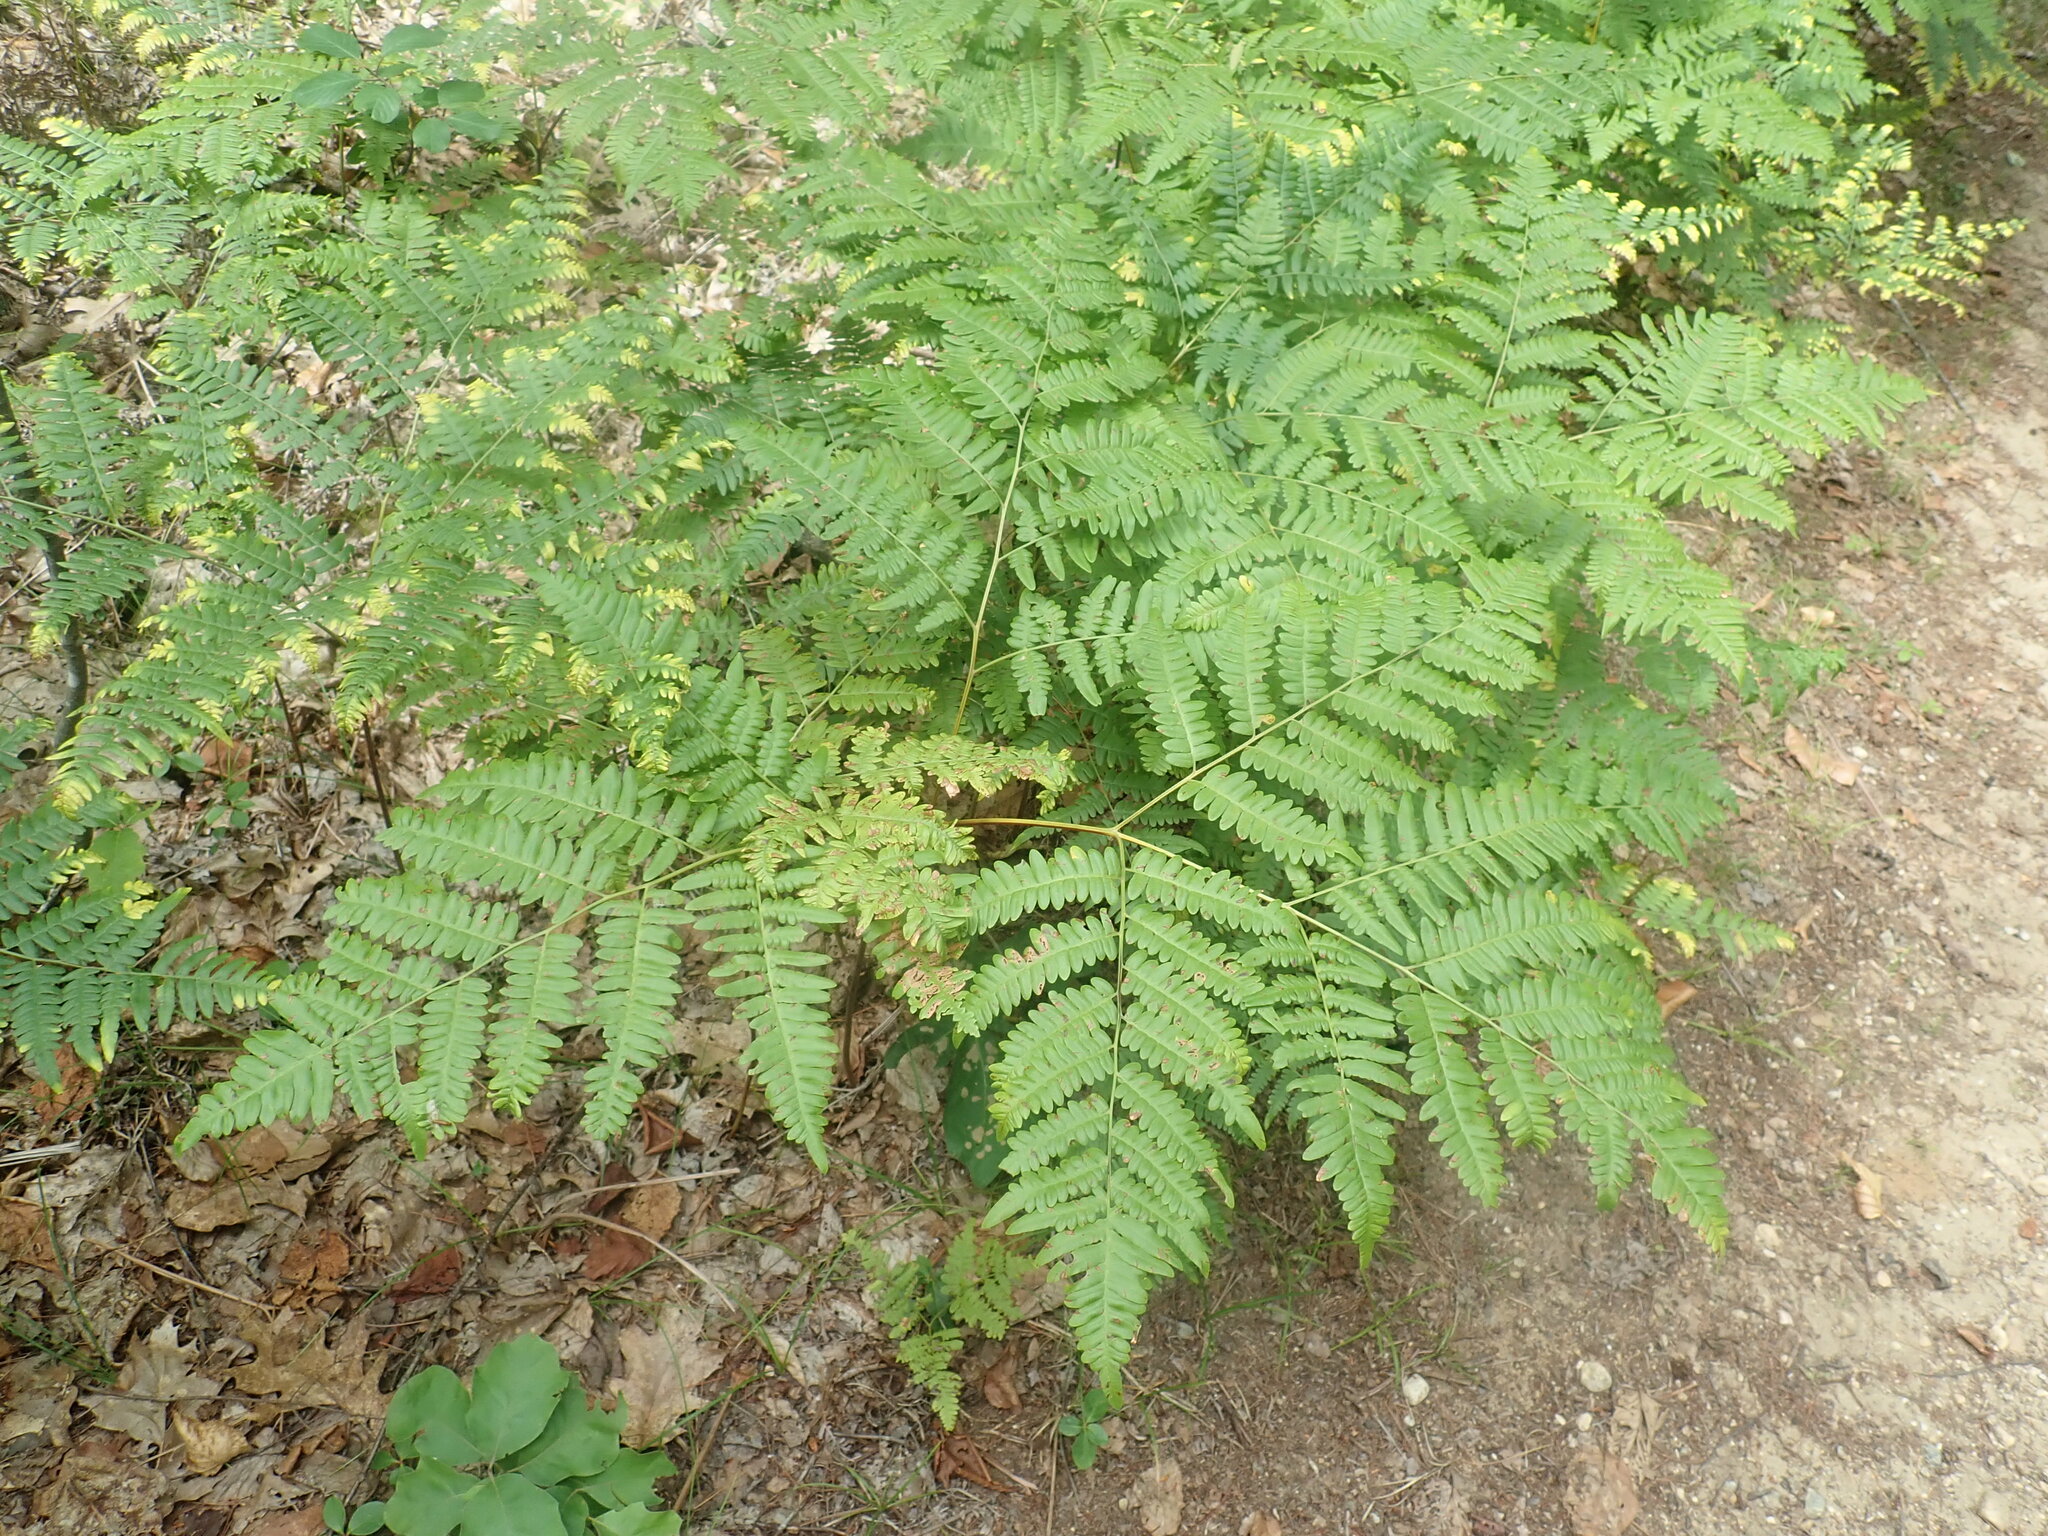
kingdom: Plantae
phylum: Tracheophyta
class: Polypodiopsida
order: Polypodiales
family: Dennstaedtiaceae
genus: Pteridium
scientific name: Pteridium aquilinum
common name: Bracken
